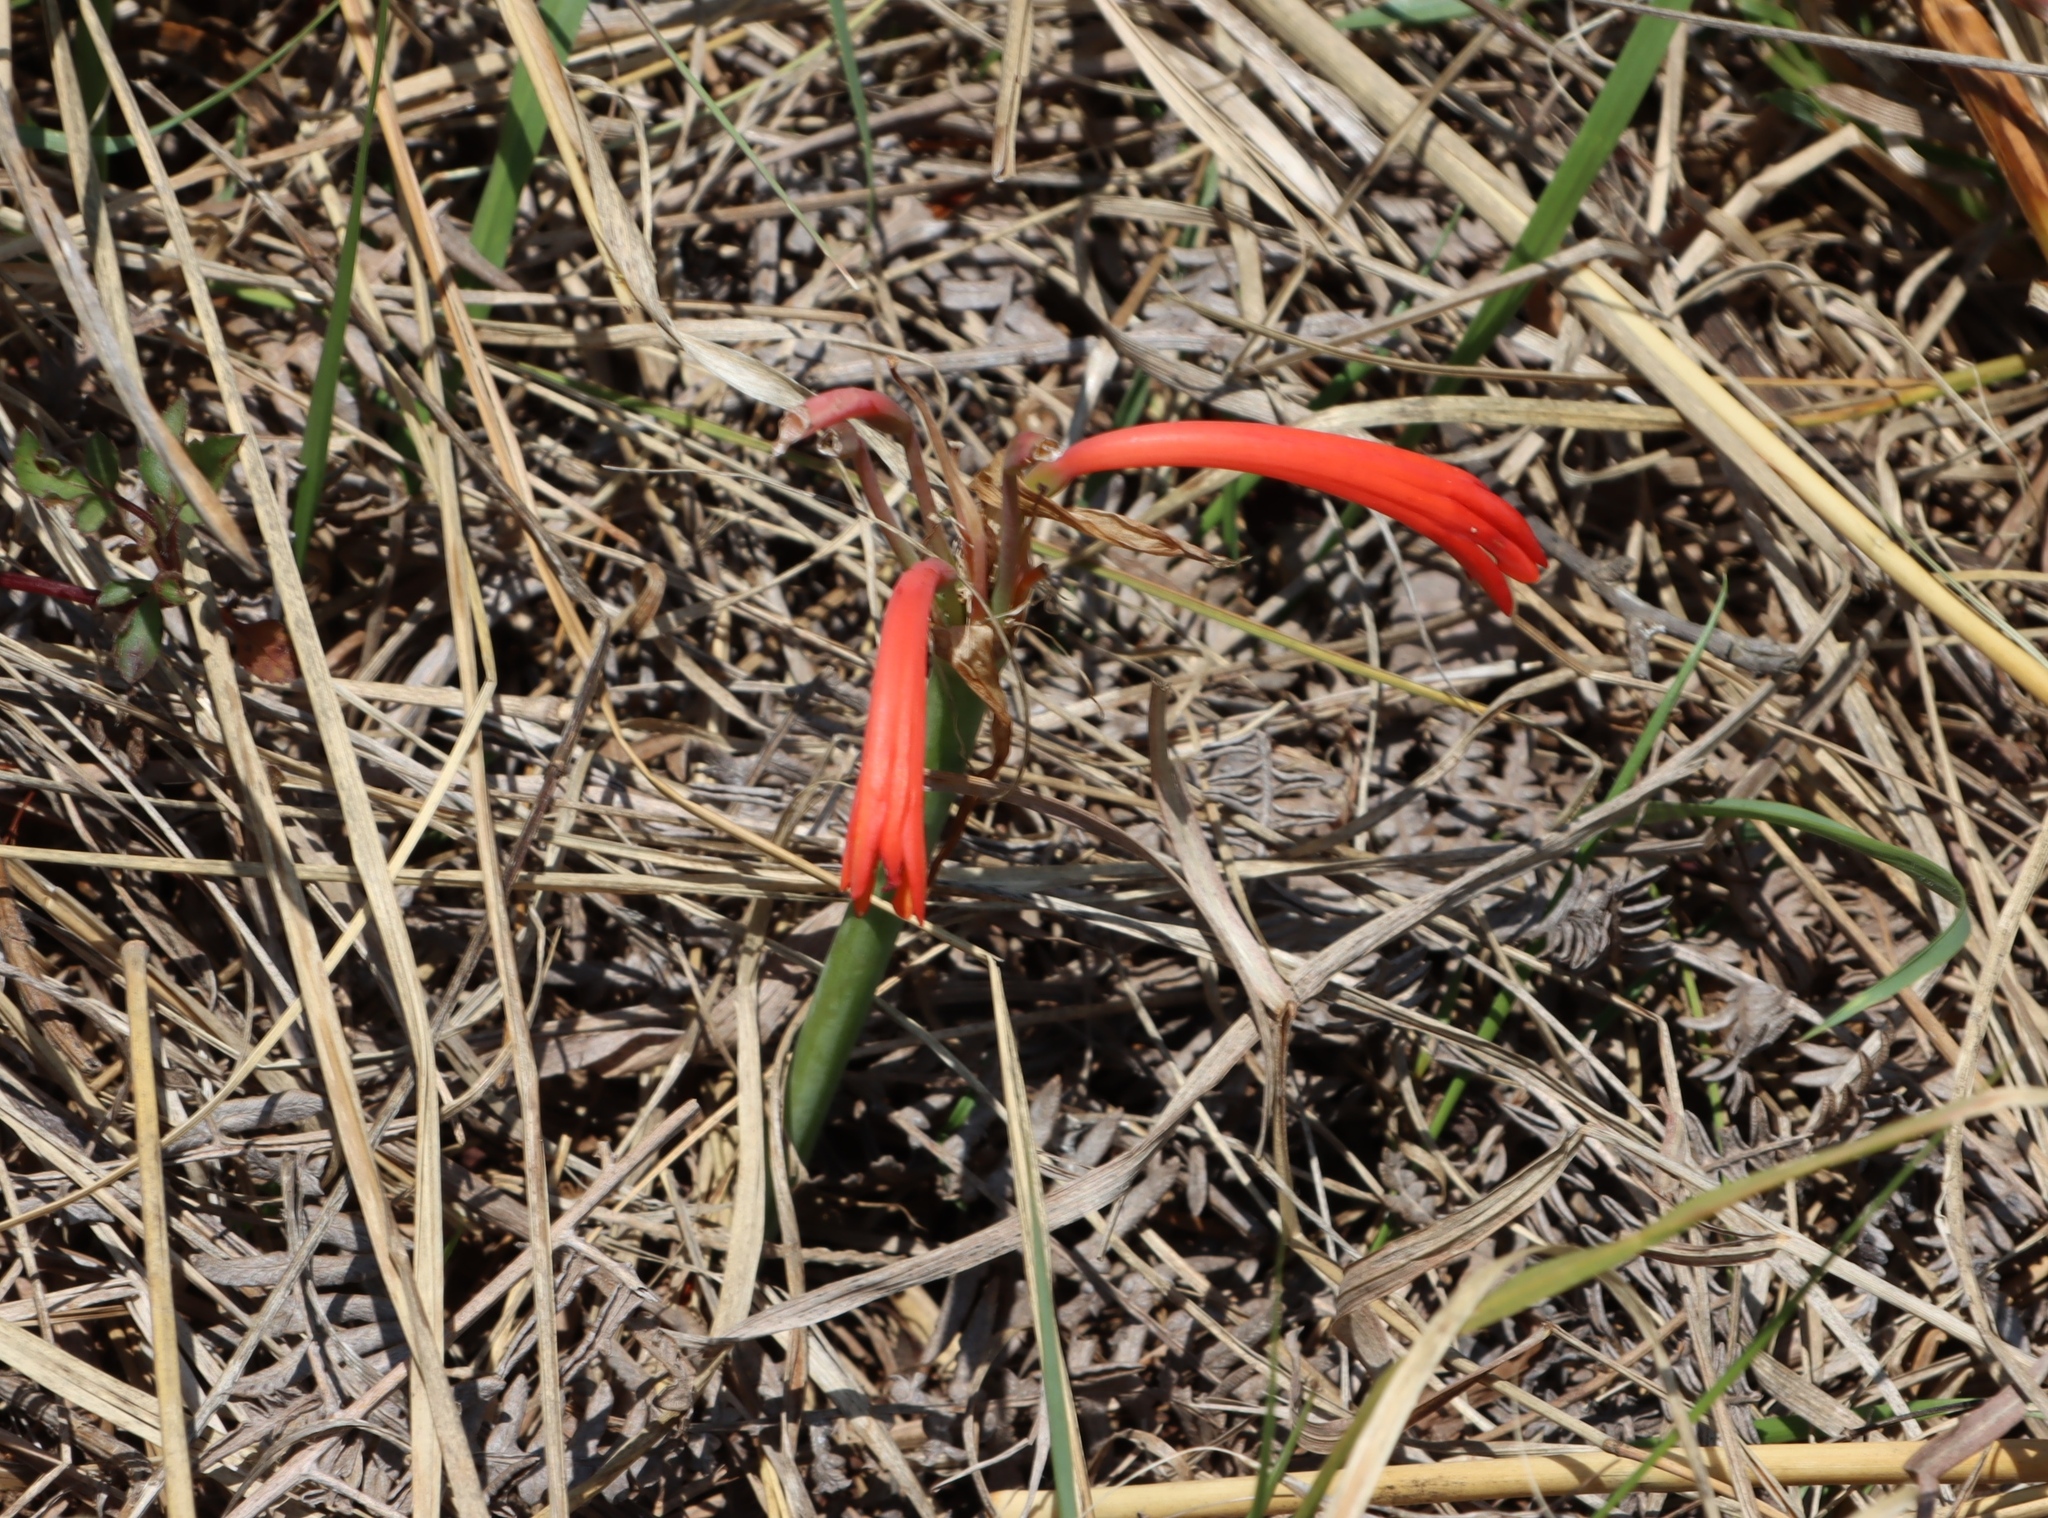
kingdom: Plantae
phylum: Tracheophyta
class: Liliopsida
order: Asparagales
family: Amaryllidaceae
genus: Cyrtanthus
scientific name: Cyrtanthus tuckii
